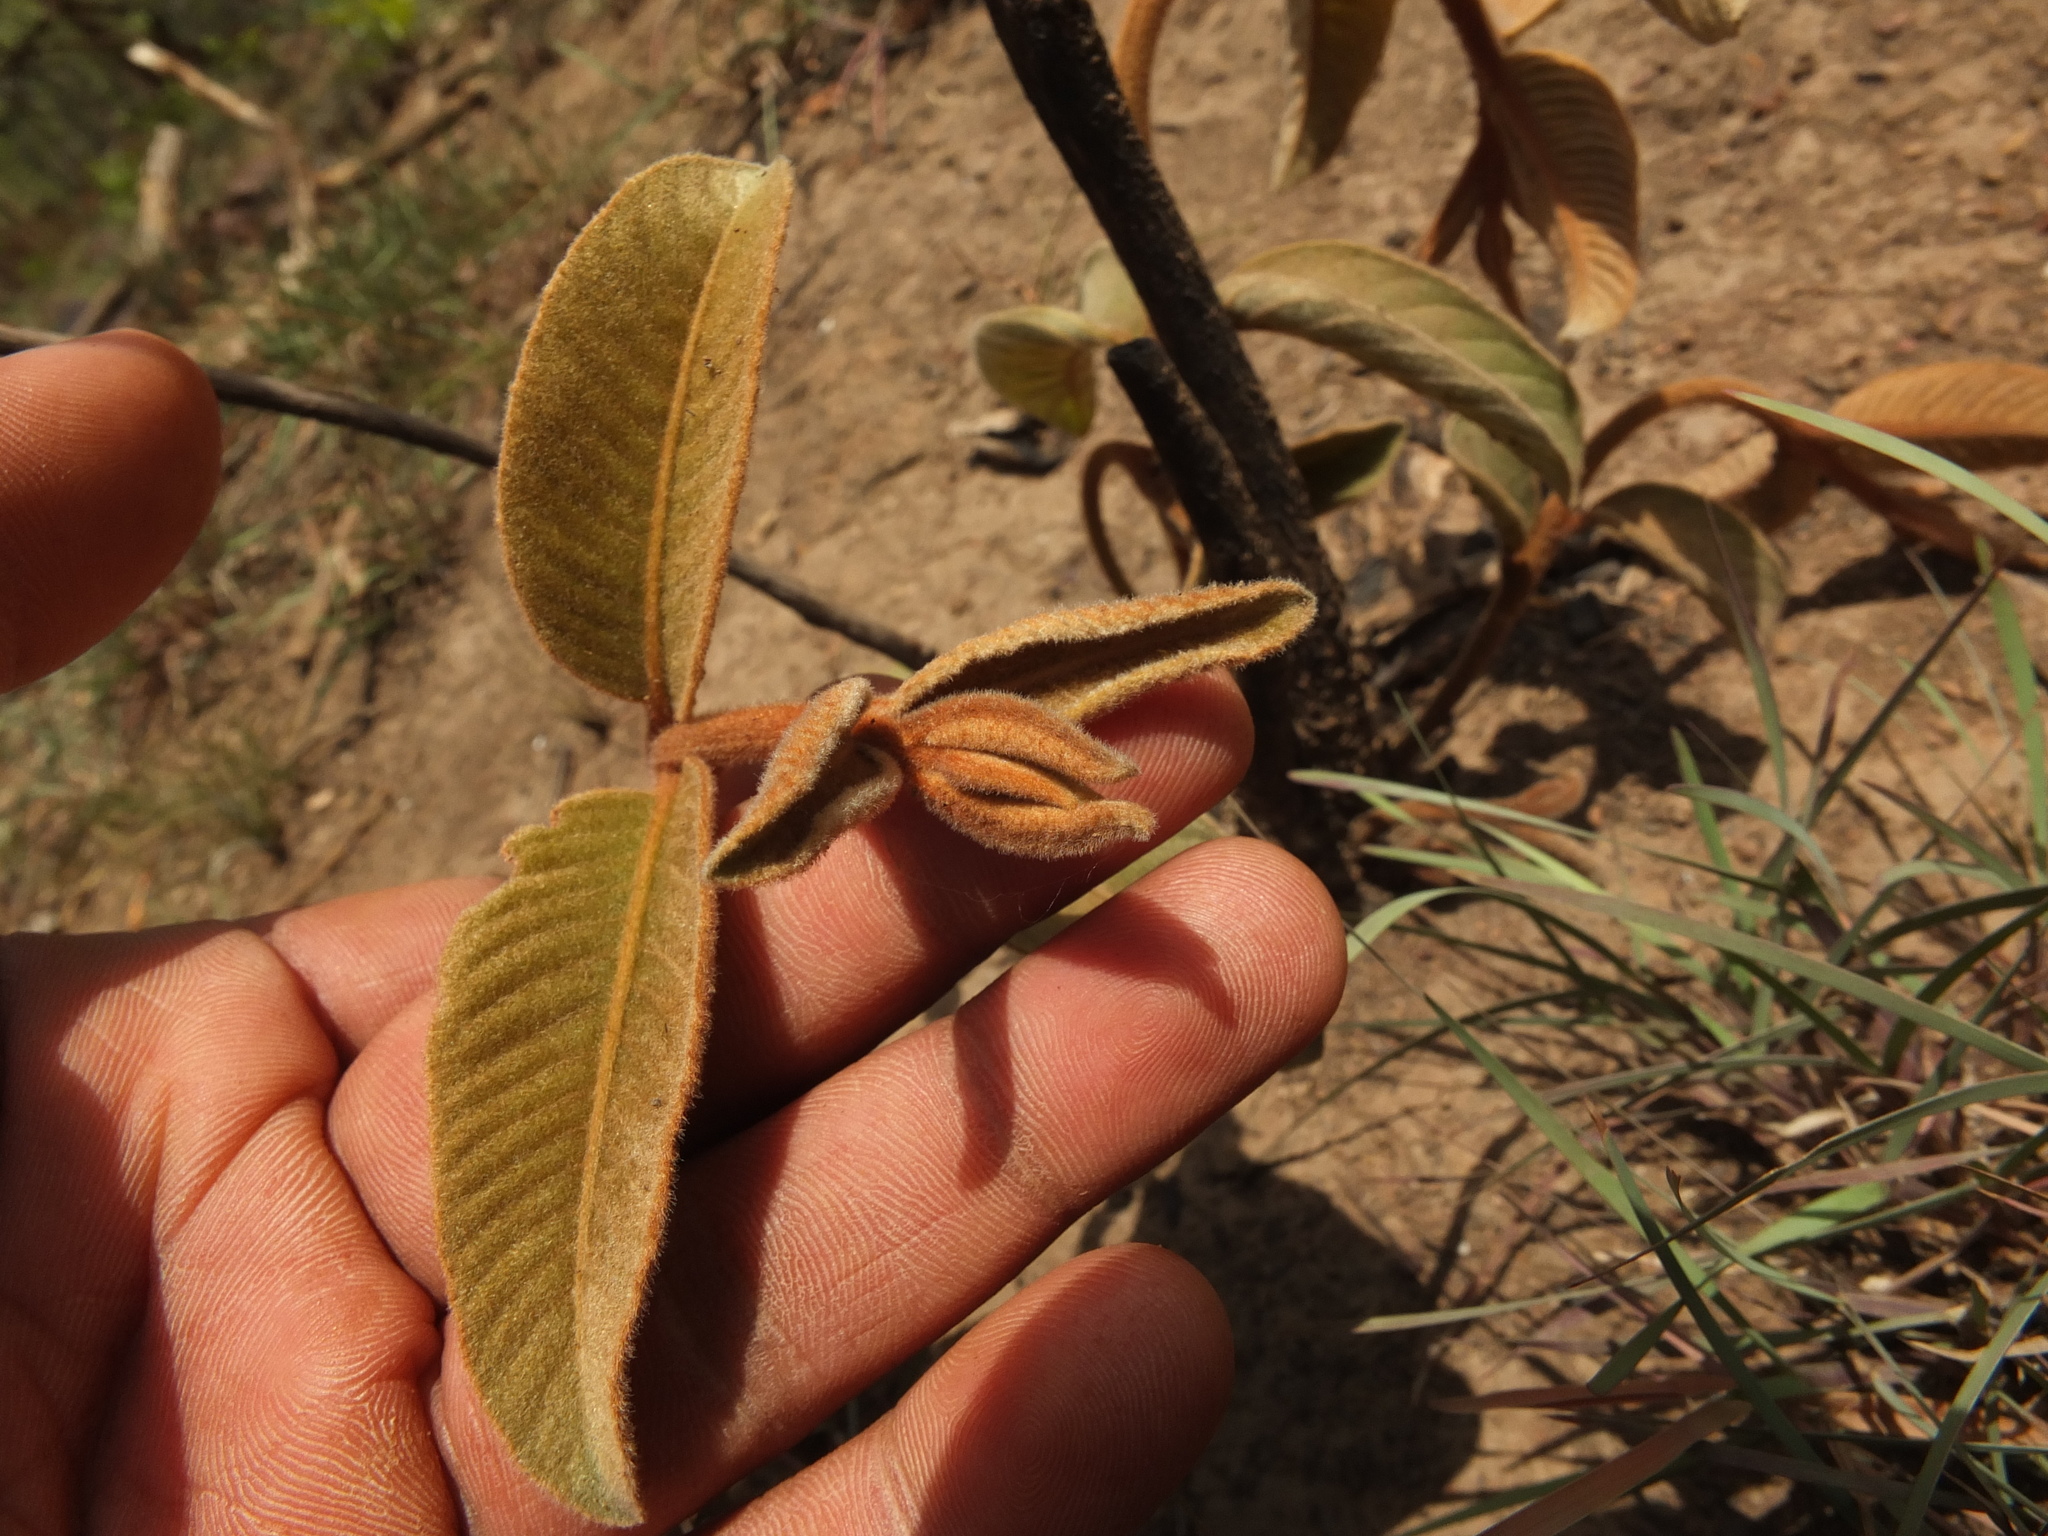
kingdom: Plantae
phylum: Tracheophyta
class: Magnoliopsida
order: Myrtales
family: Combretaceae
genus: Terminalia
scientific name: Terminalia elliptica
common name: Indian-laurel
